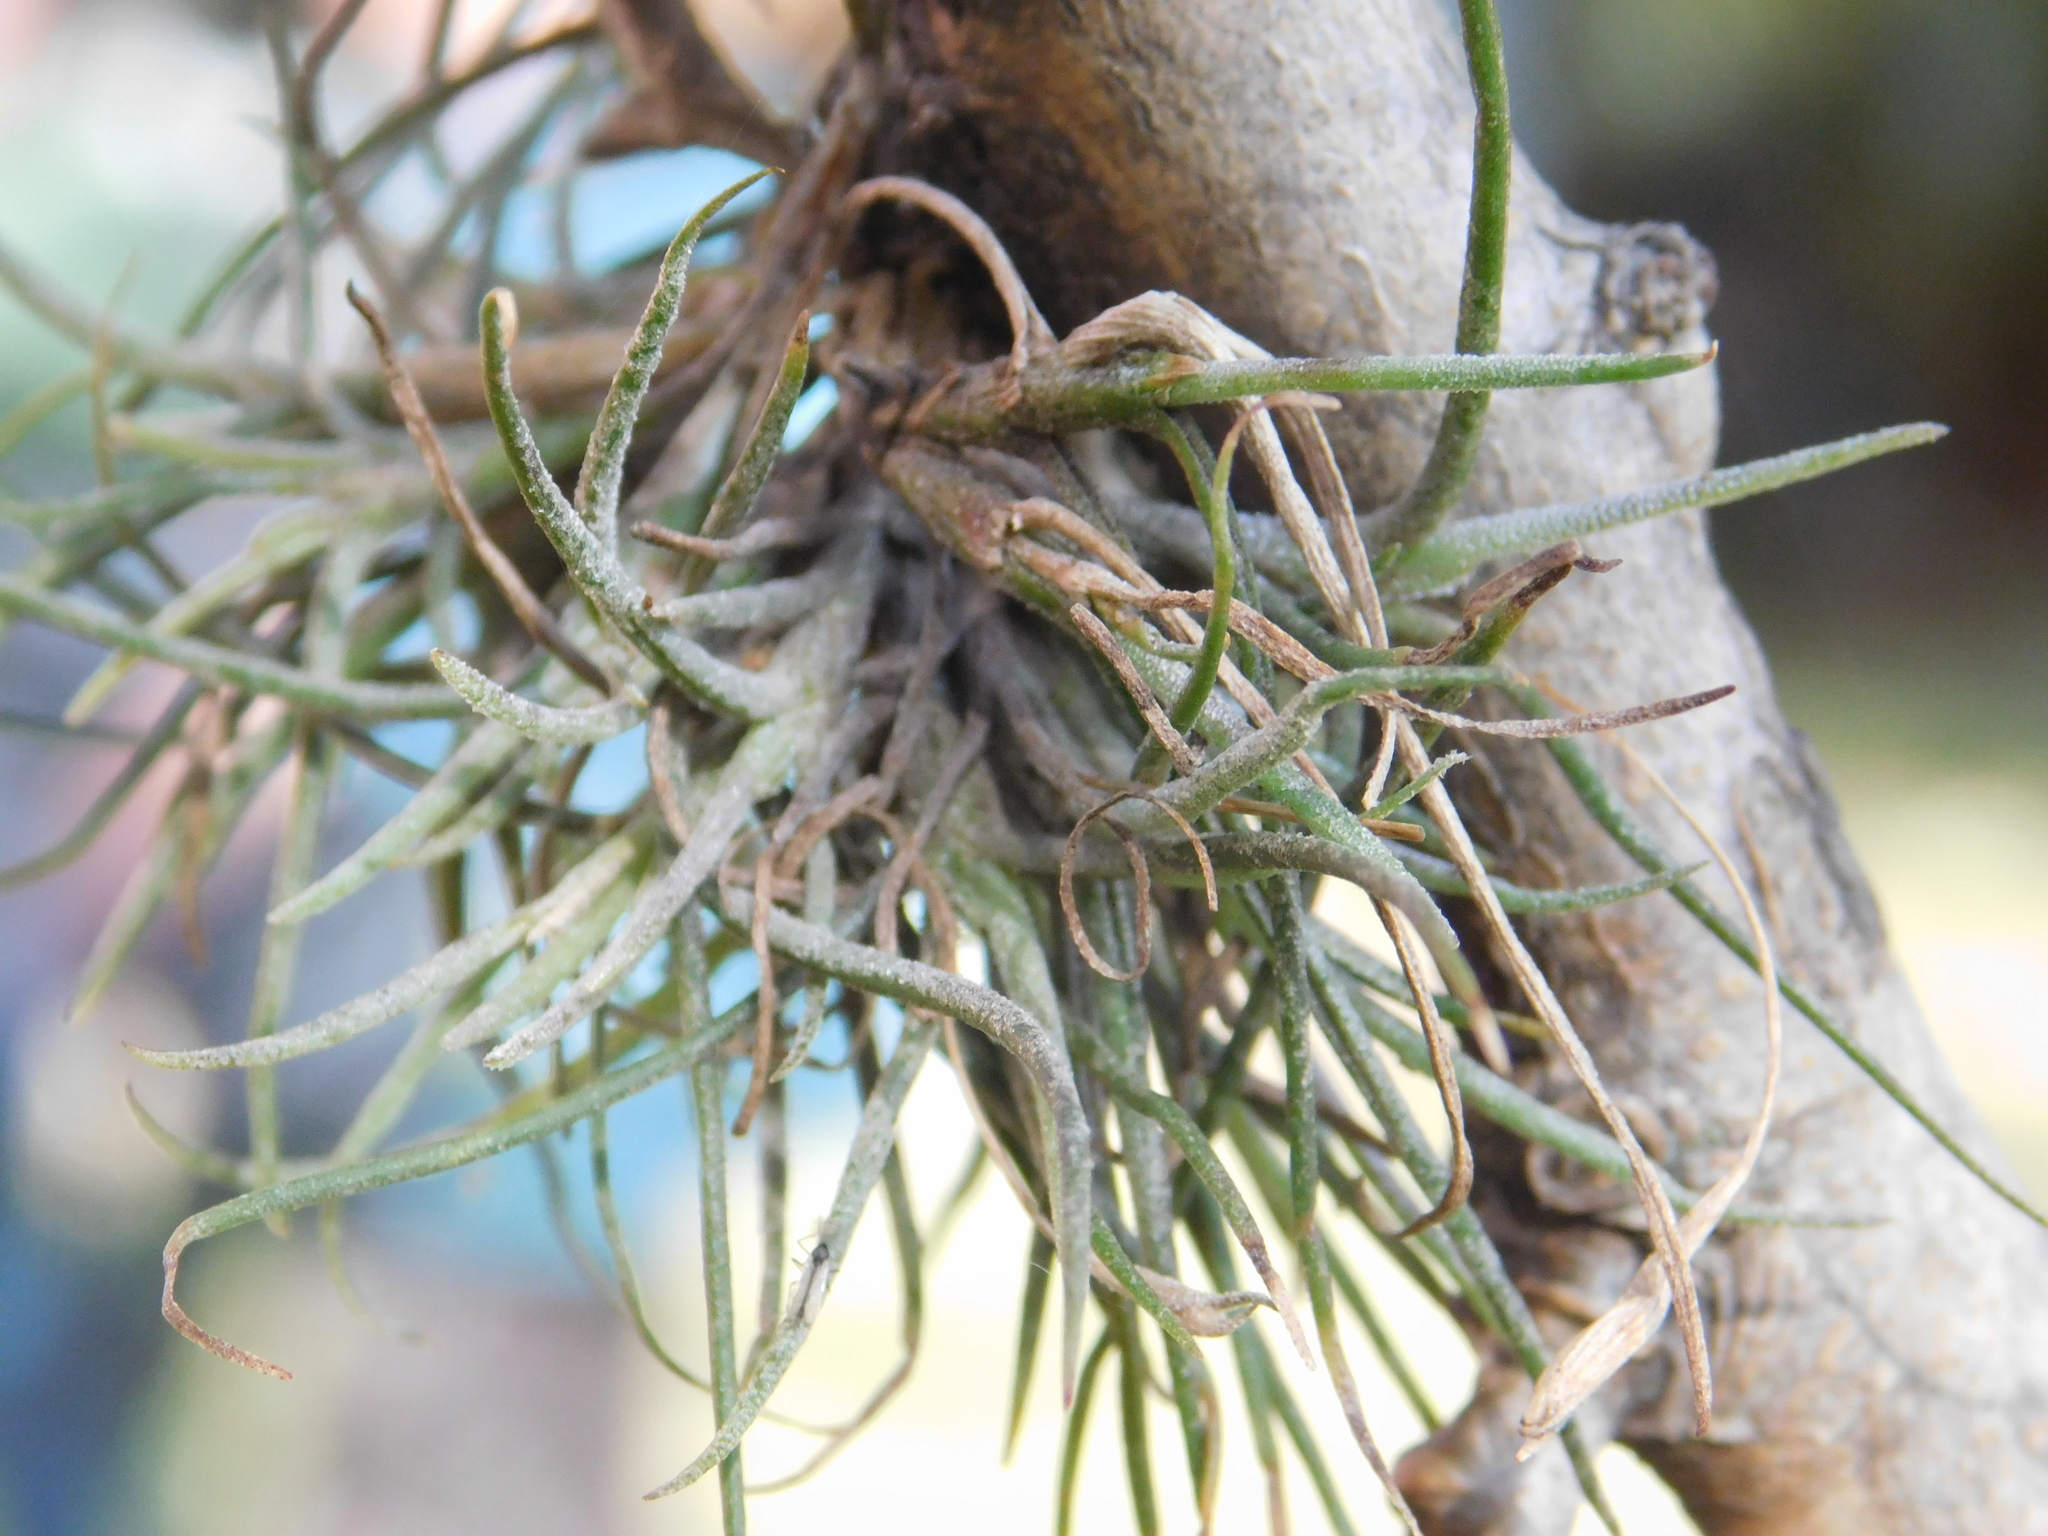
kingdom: Plantae
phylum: Tracheophyta
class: Liliopsida
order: Poales
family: Bromeliaceae
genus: Tillandsia
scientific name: Tillandsia recurvata
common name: Small ballmoss
